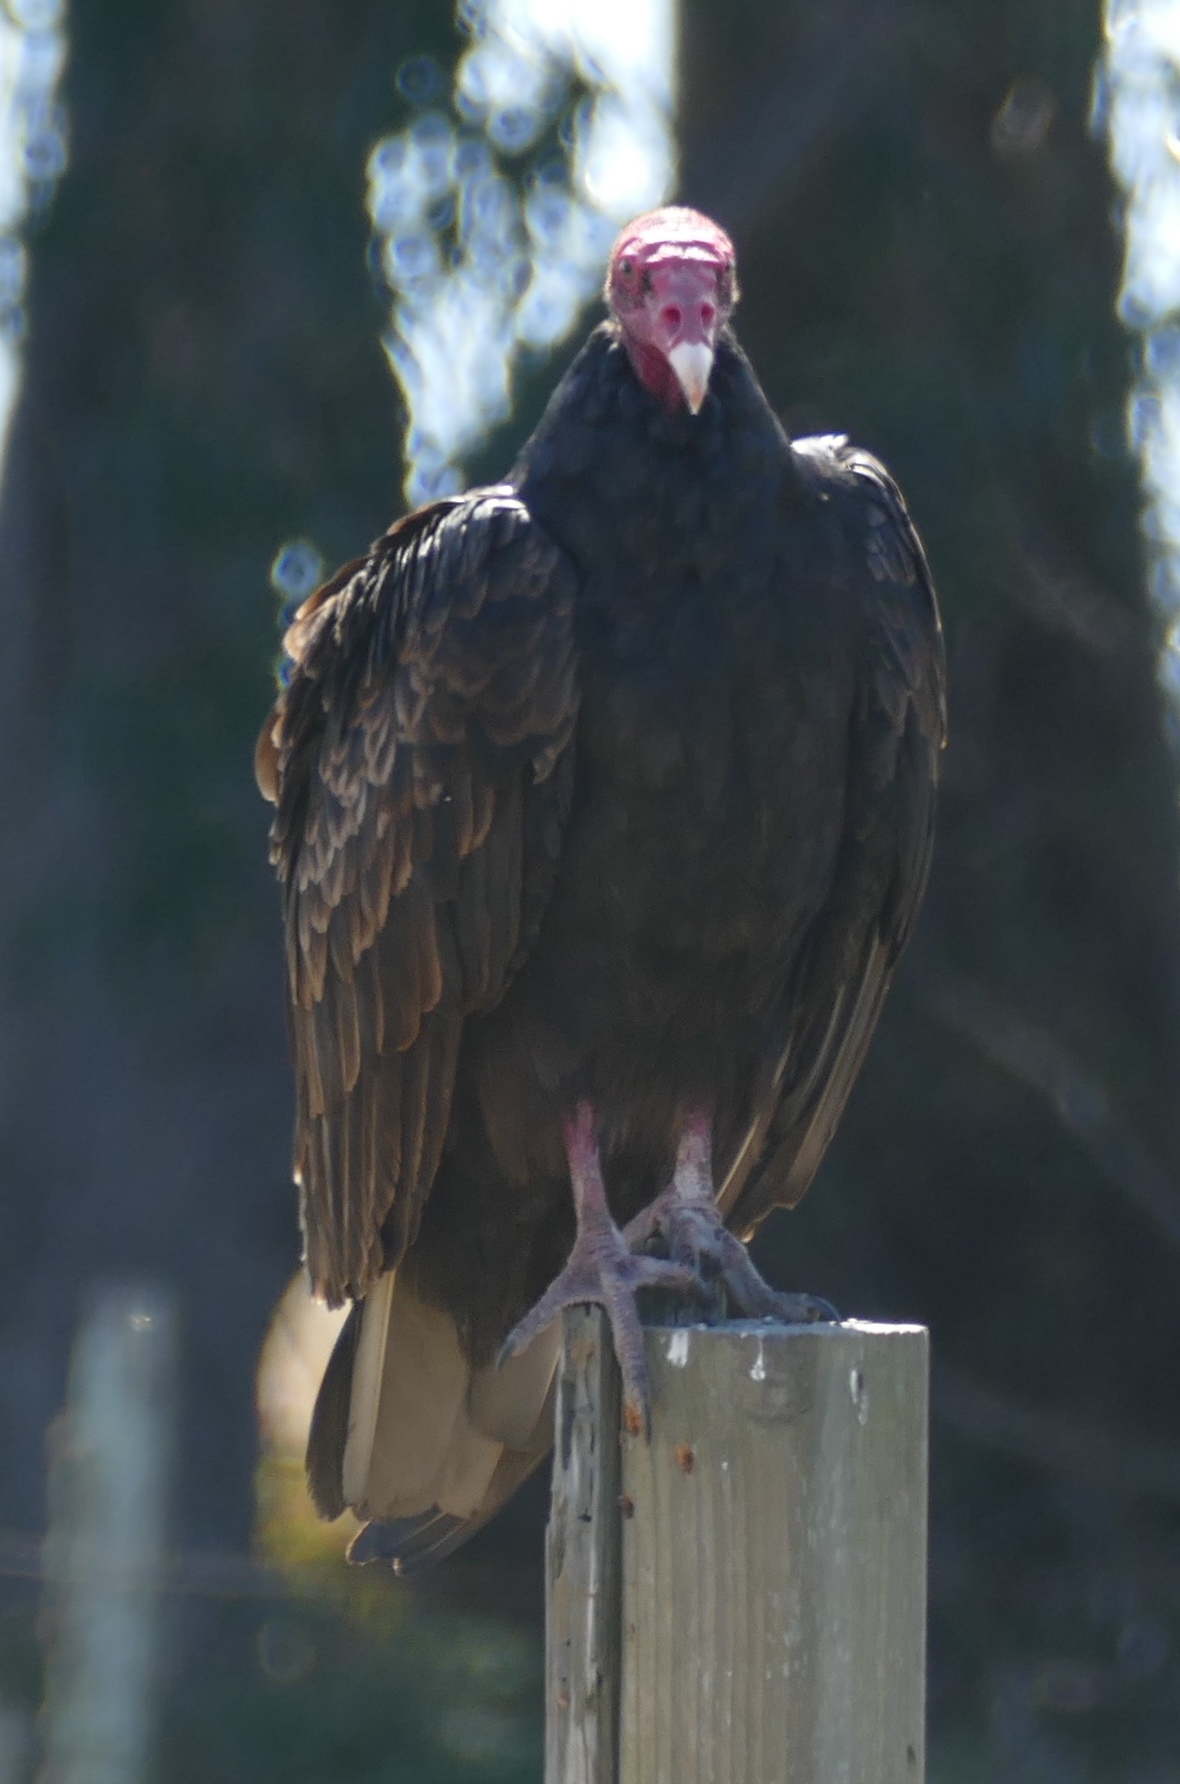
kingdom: Animalia
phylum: Chordata
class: Aves
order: Accipitriformes
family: Cathartidae
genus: Cathartes
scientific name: Cathartes aura
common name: Turkey vulture
